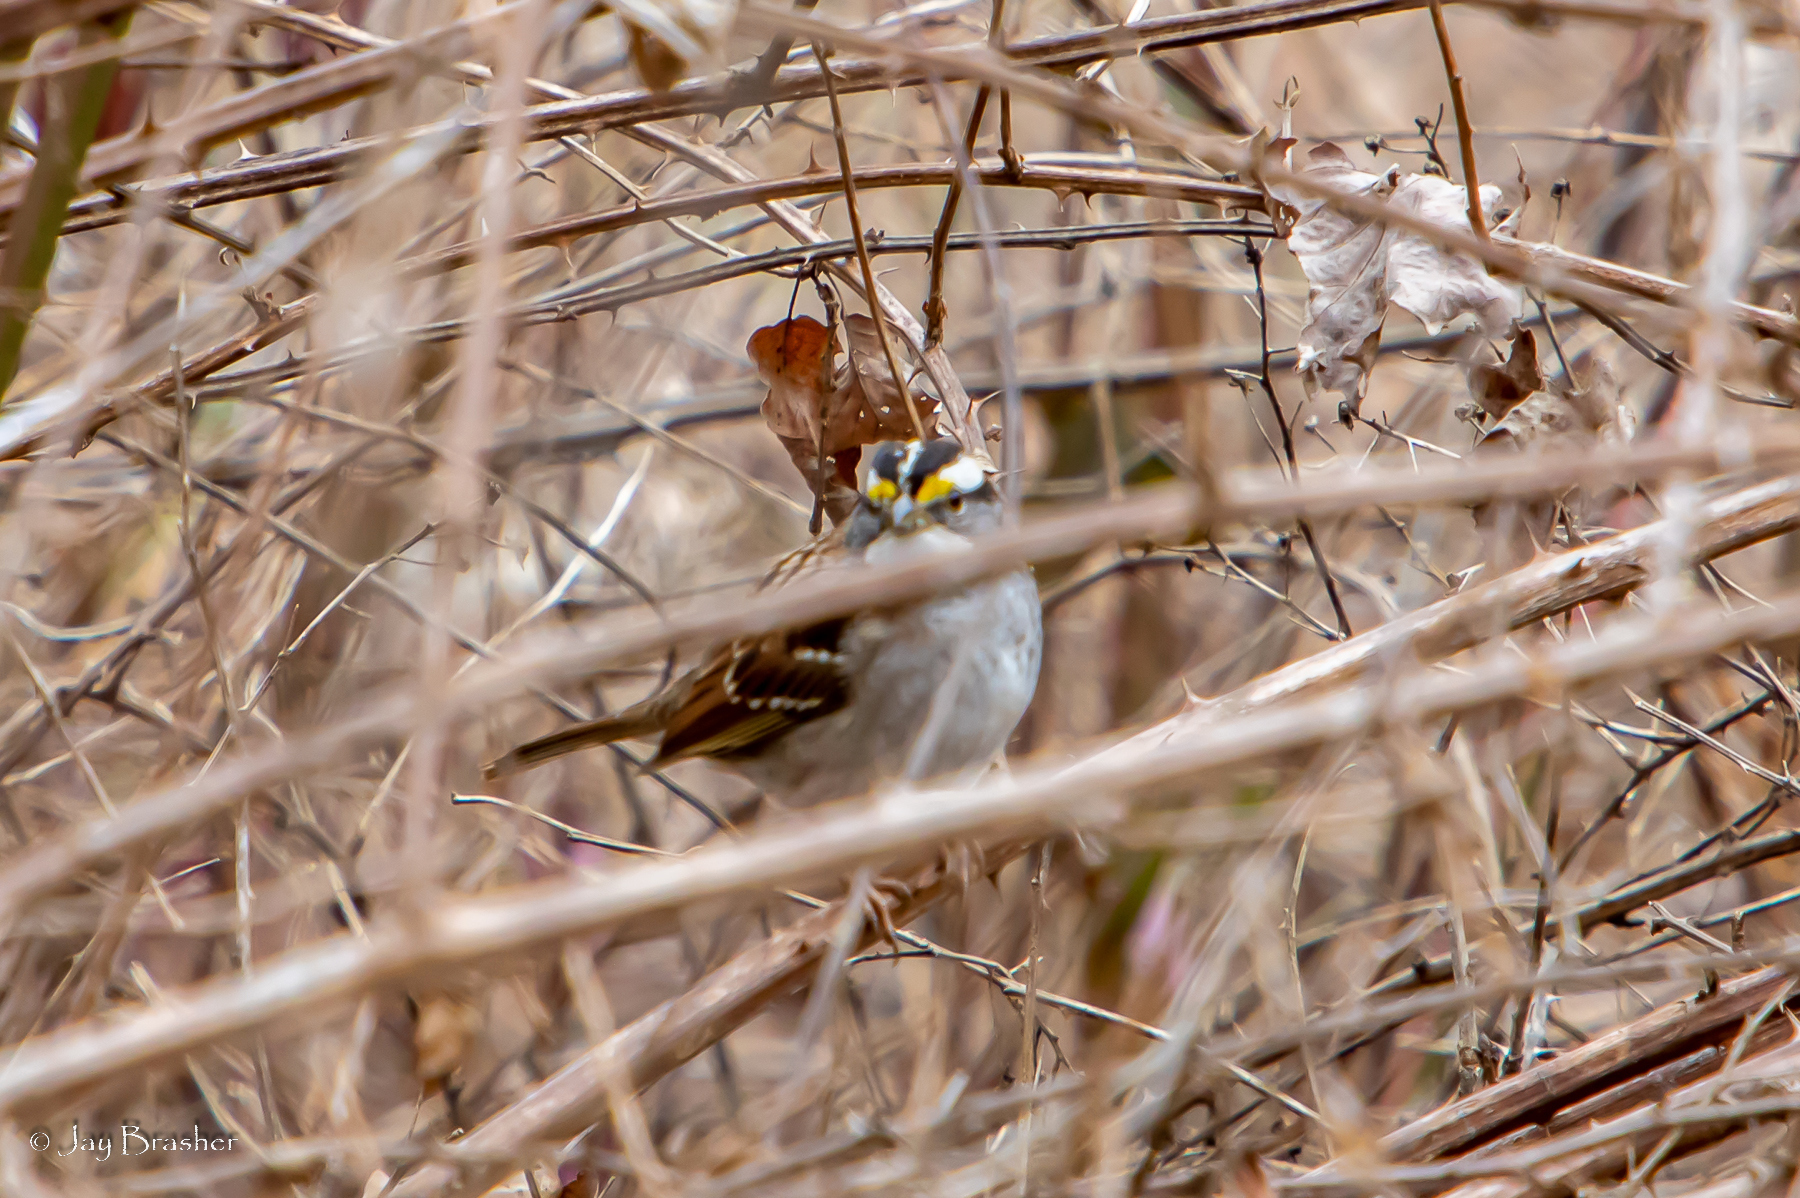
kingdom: Animalia
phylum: Chordata
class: Aves
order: Passeriformes
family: Passerellidae
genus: Zonotrichia
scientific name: Zonotrichia albicollis
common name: White-throated sparrow
